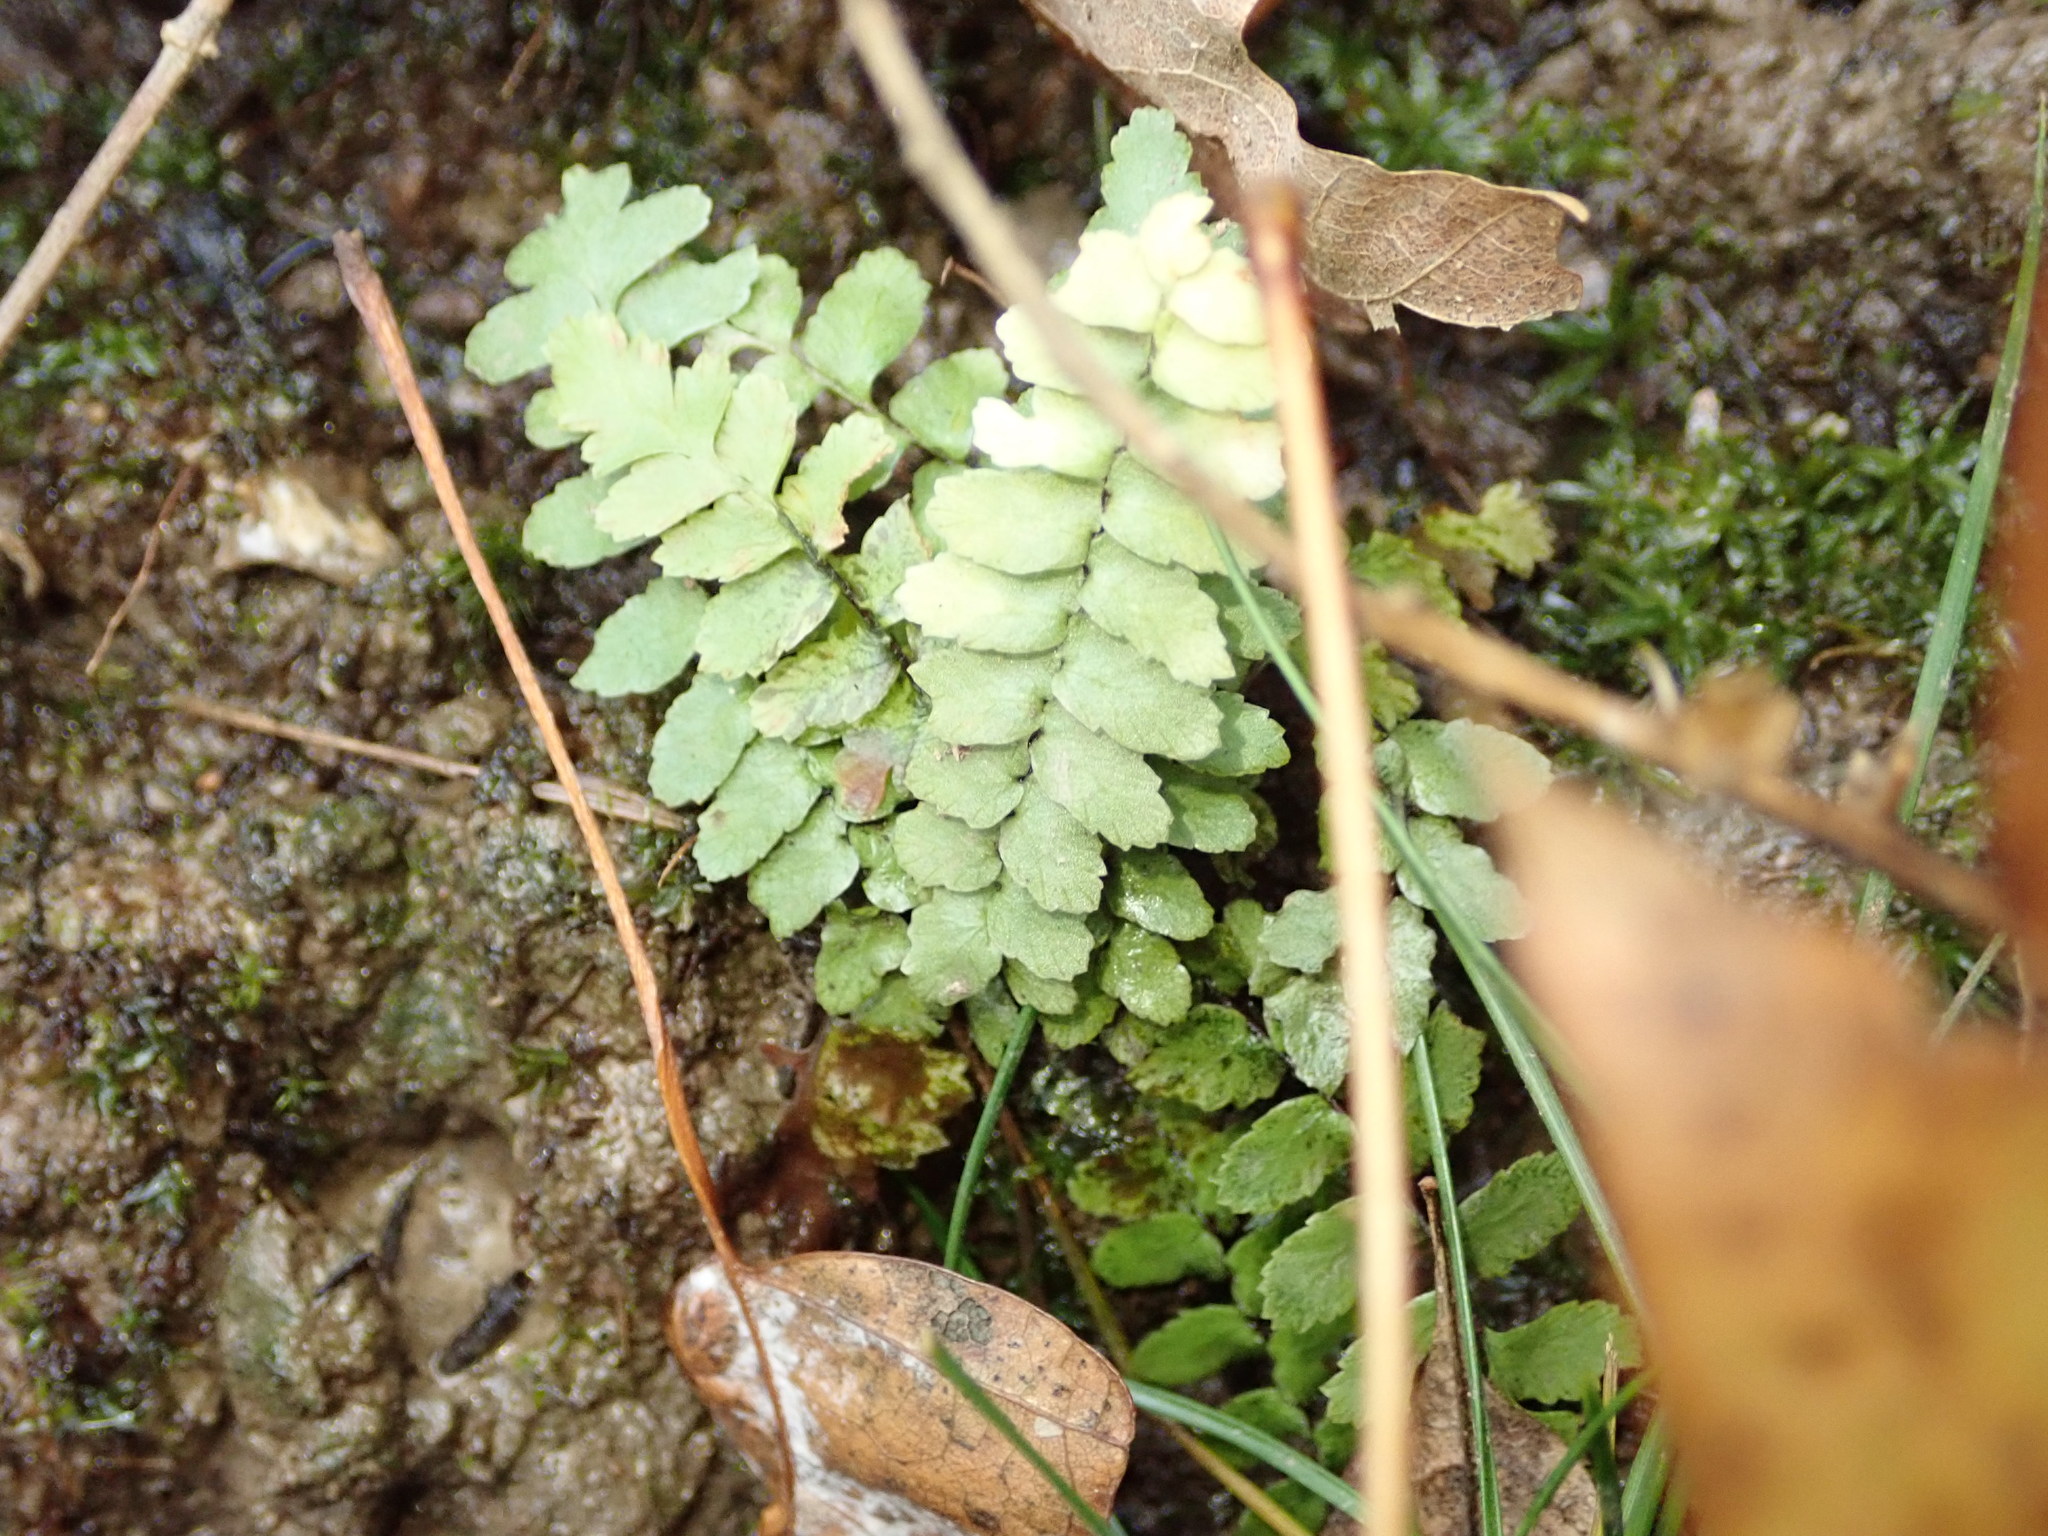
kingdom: Plantae
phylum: Tracheophyta
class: Polypodiopsida
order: Polypodiales
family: Aspleniaceae
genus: Asplenium
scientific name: Asplenium platyneuron
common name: Ebony spleenwort
